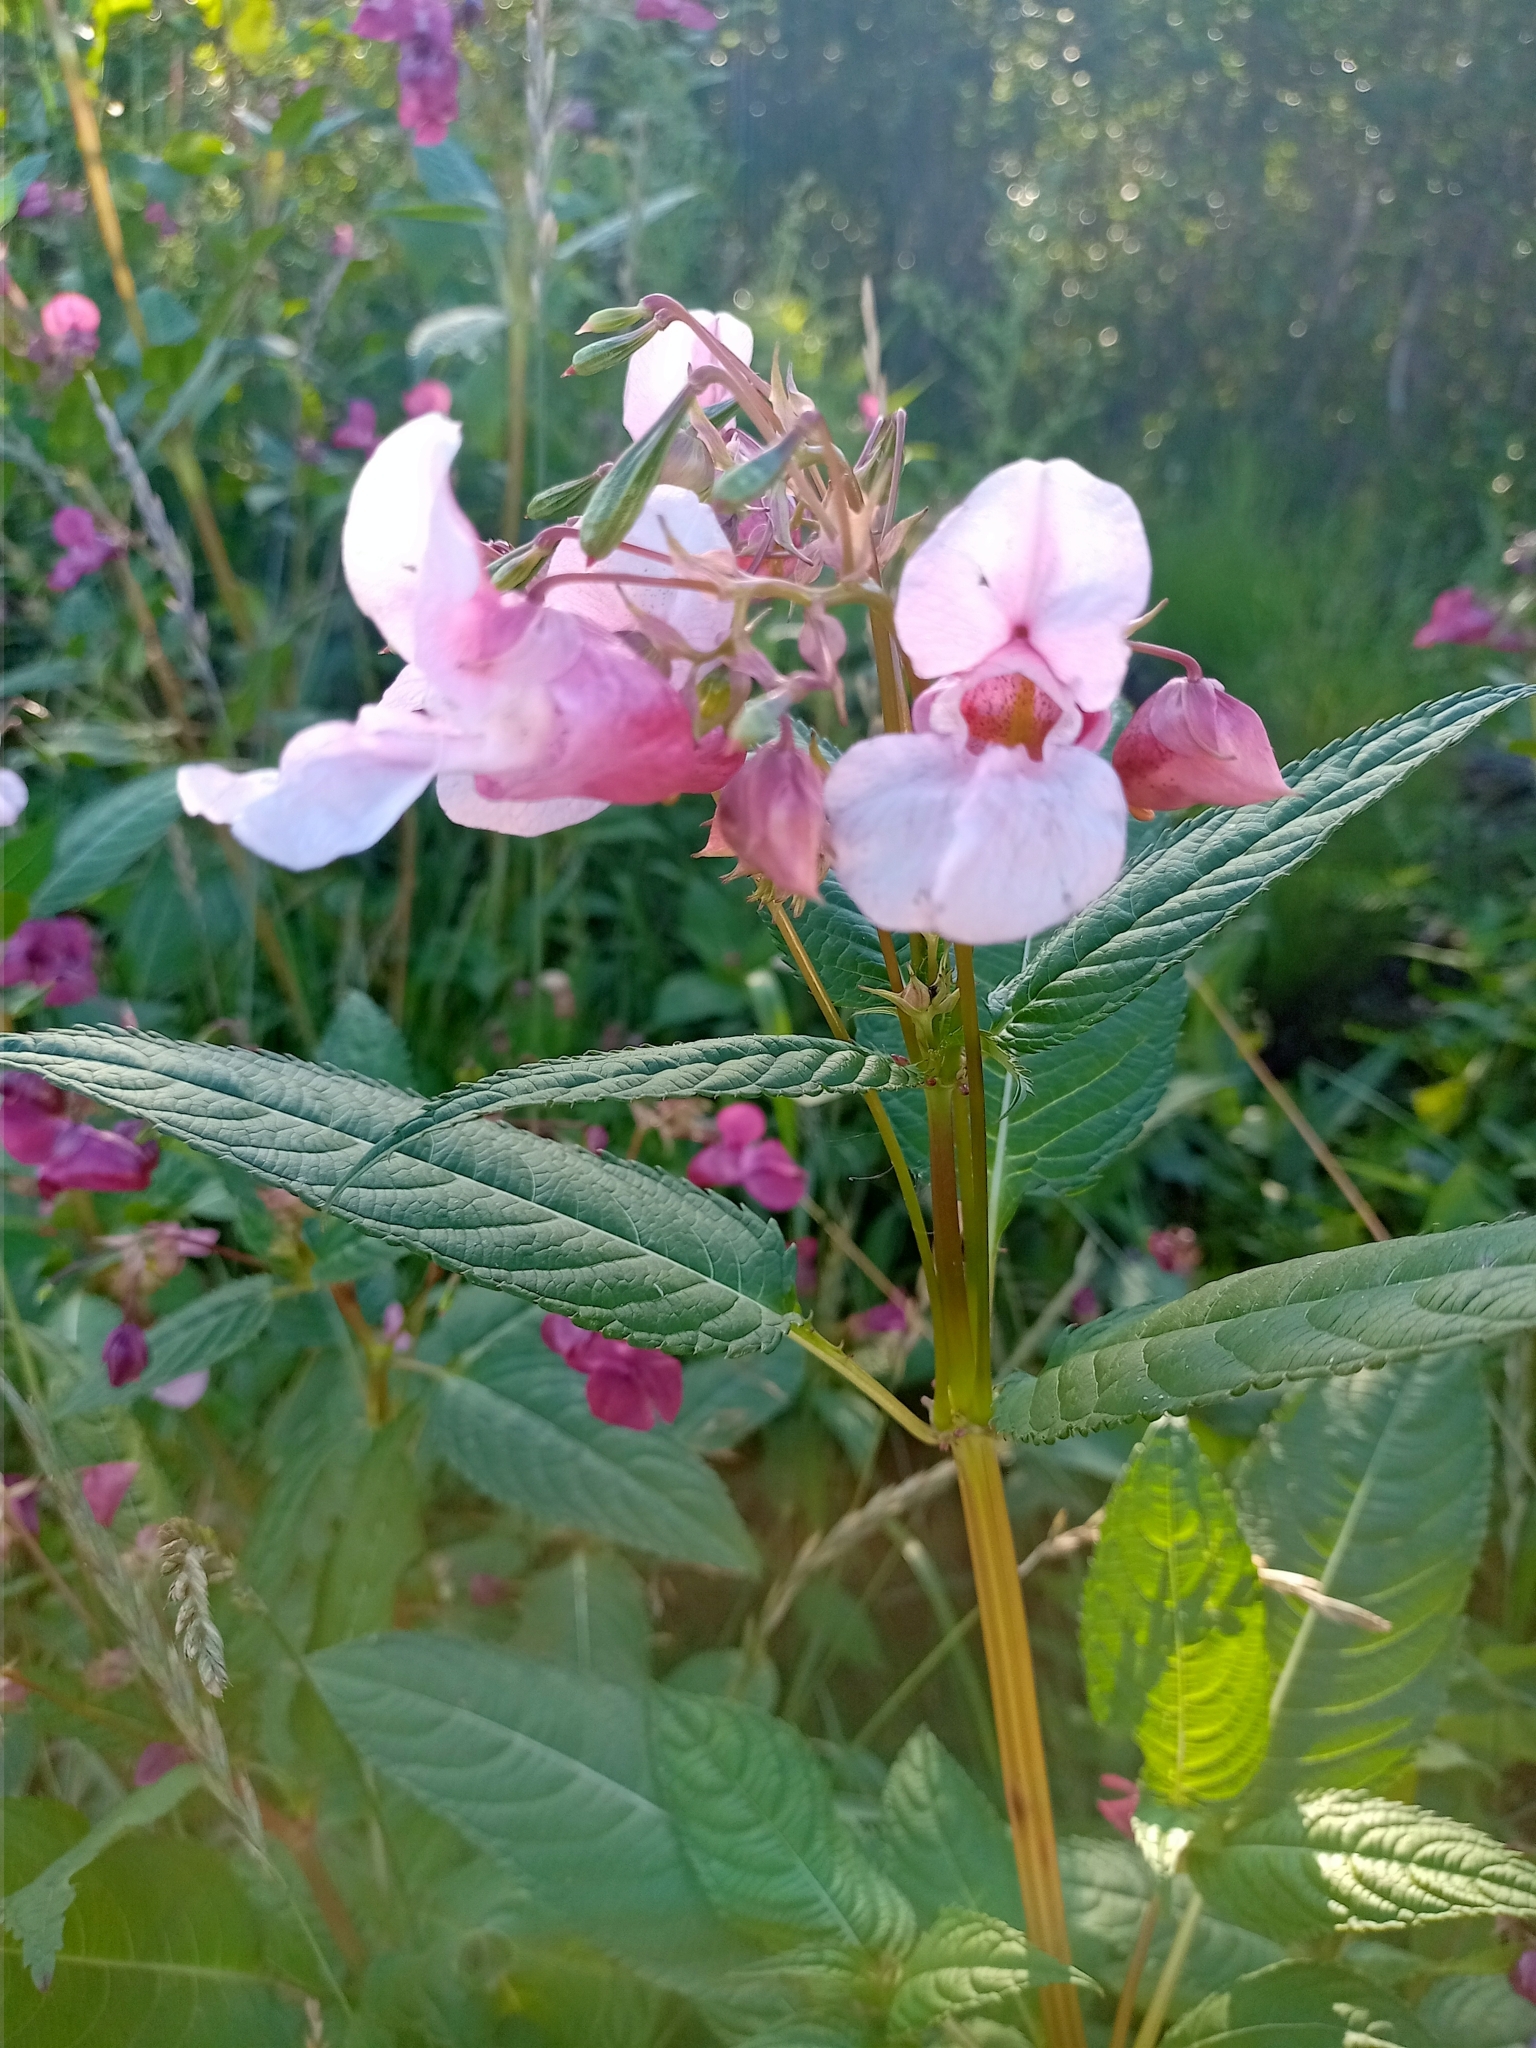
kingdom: Plantae
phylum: Tracheophyta
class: Magnoliopsida
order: Ericales
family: Balsaminaceae
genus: Impatiens
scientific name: Impatiens glandulifera
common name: Himalayan balsam
